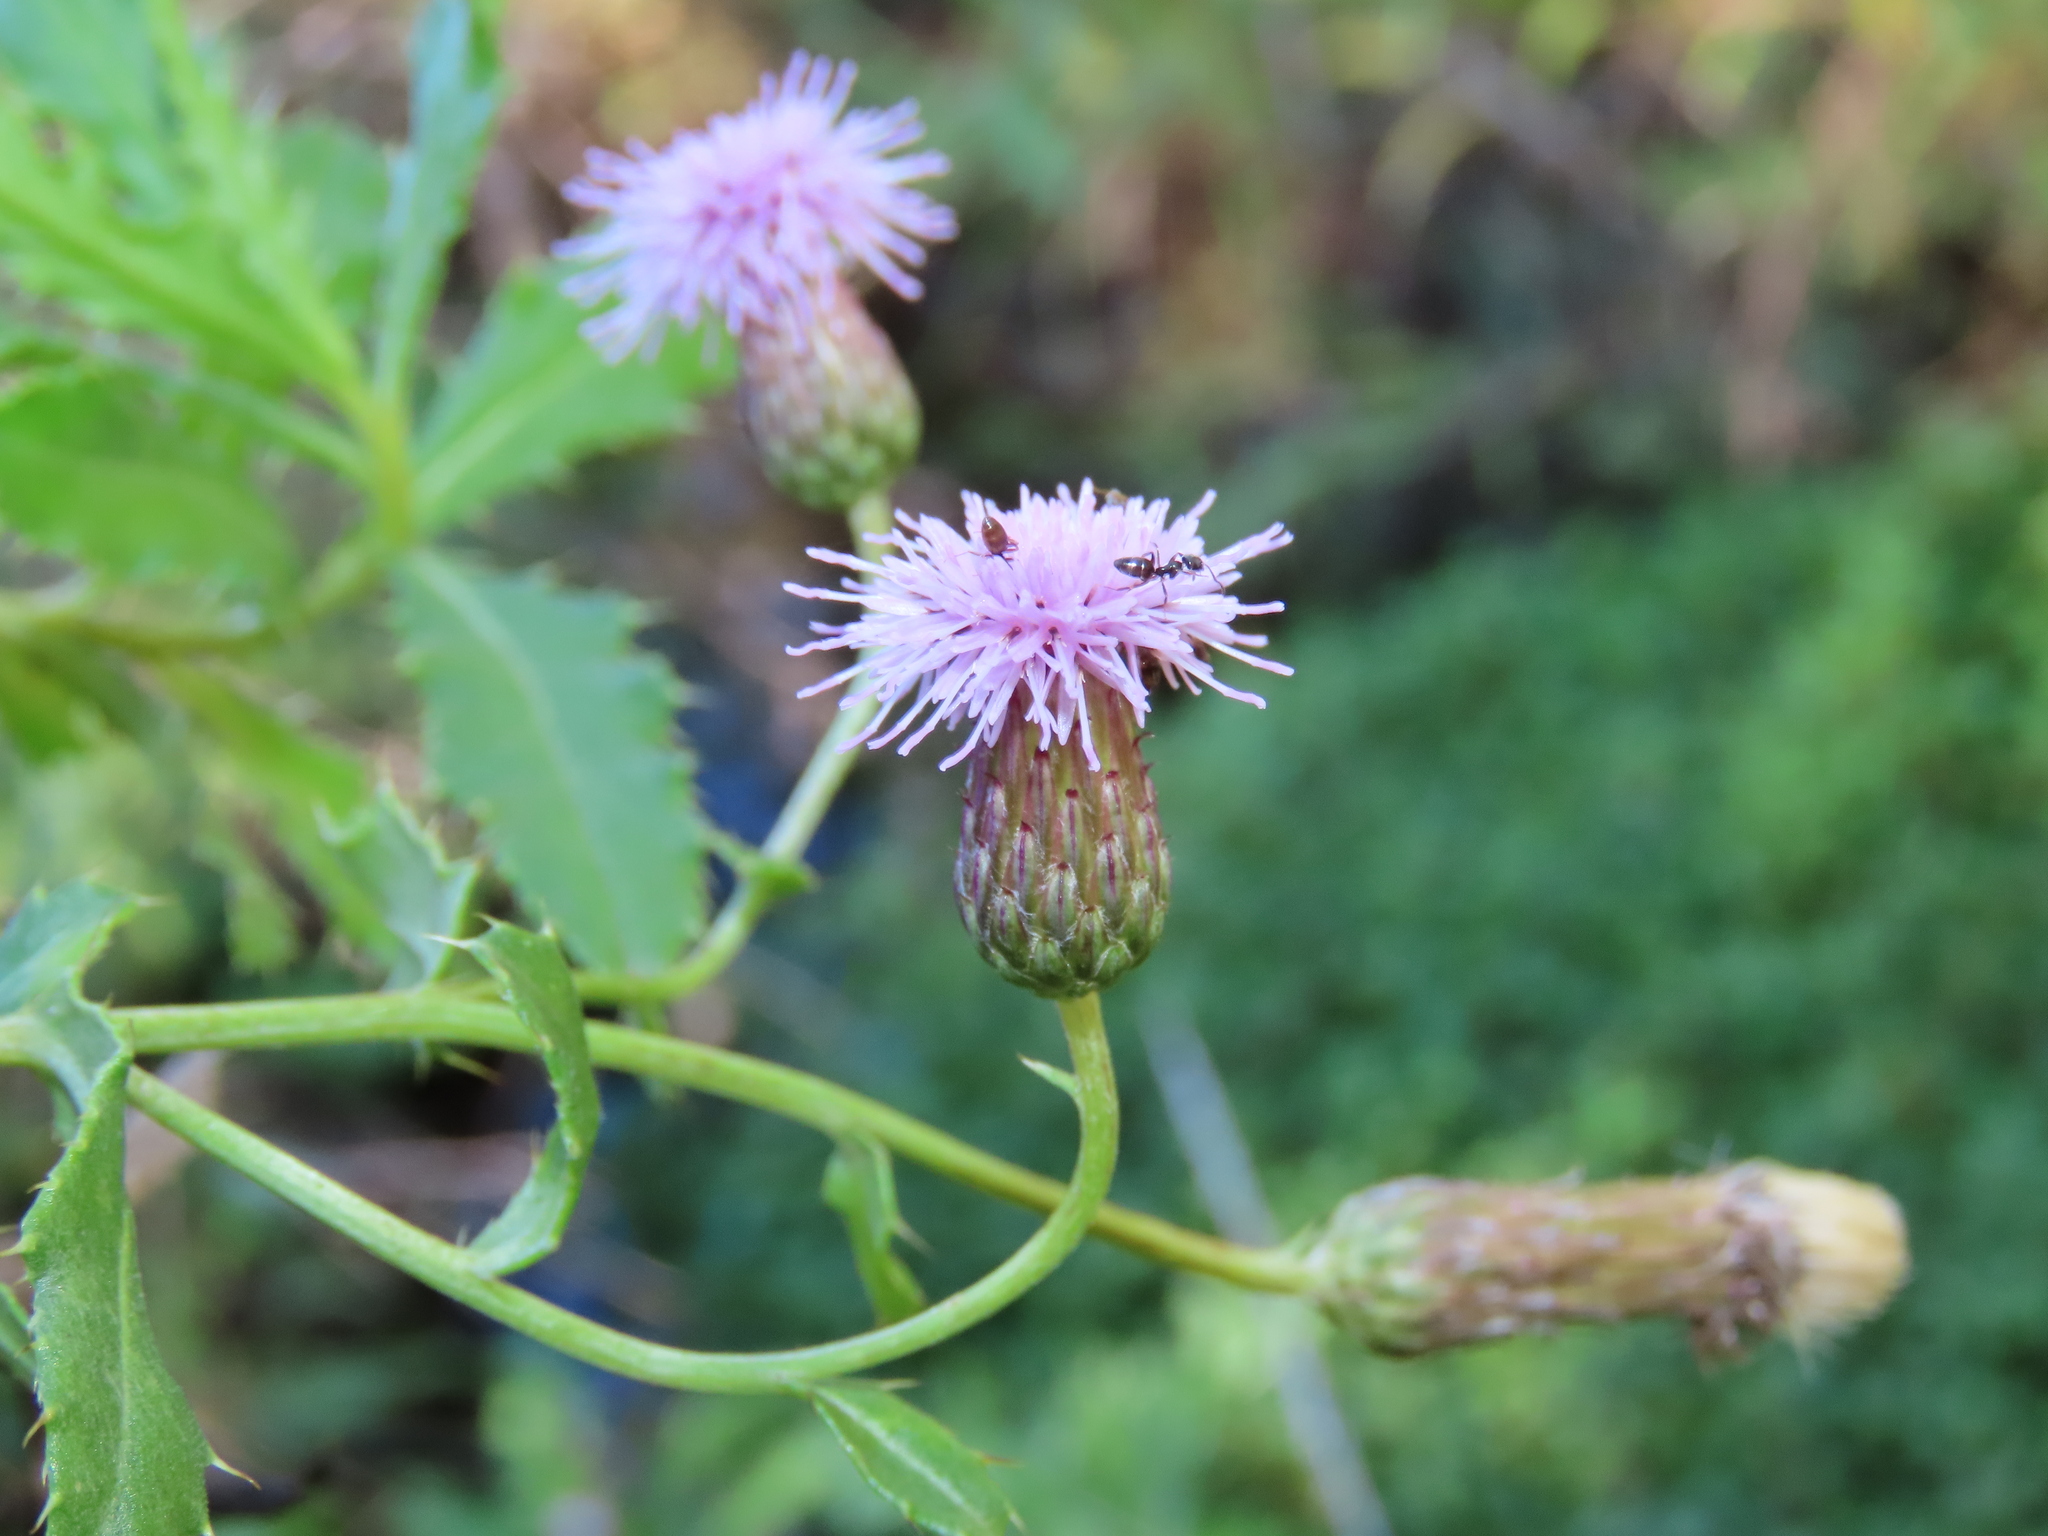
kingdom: Plantae
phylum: Tracheophyta
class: Magnoliopsida
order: Asterales
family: Asteraceae
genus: Cirsium
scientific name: Cirsium arvense
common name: Creeping thistle
